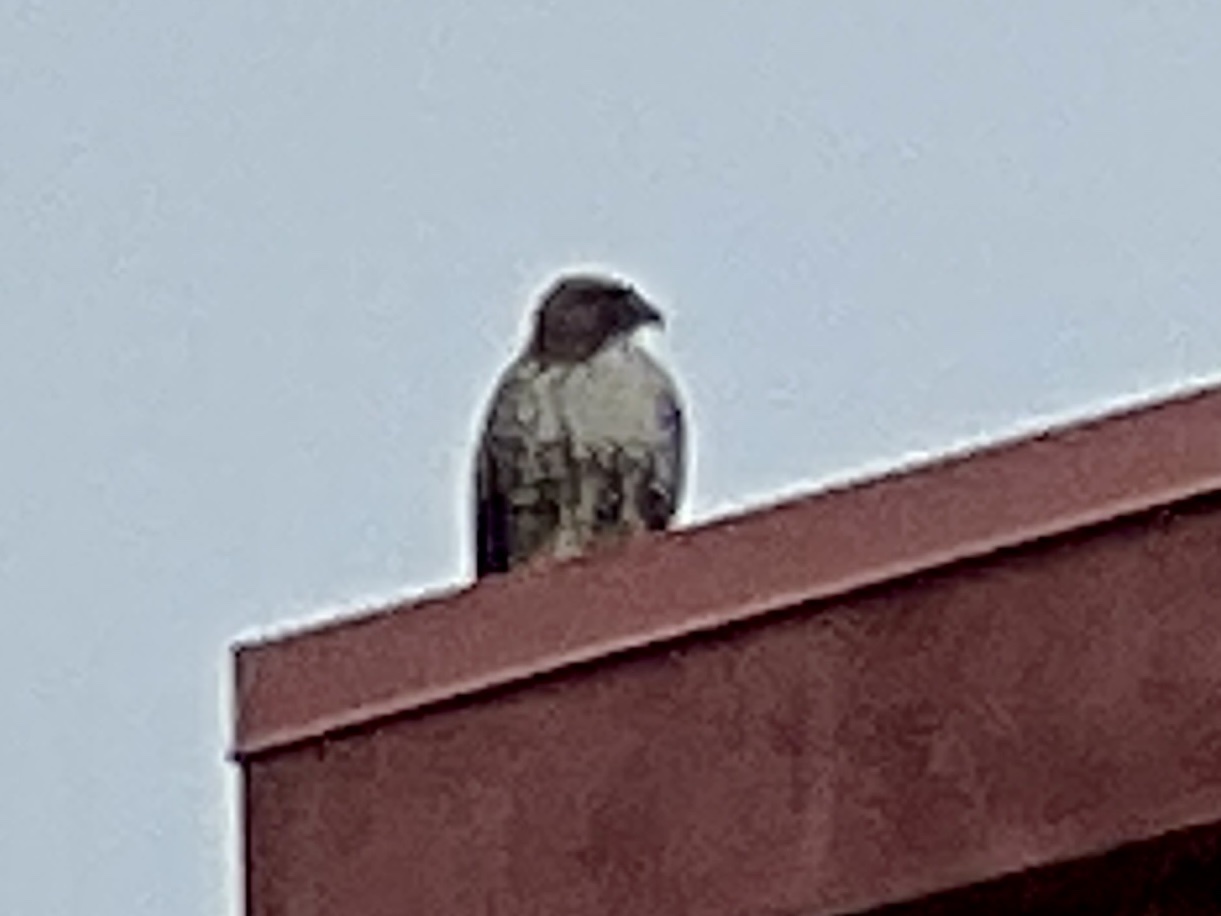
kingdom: Animalia
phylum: Chordata
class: Aves
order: Accipitriformes
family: Accipitridae
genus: Buteo
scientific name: Buteo jamaicensis
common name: Red-tailed hawk
